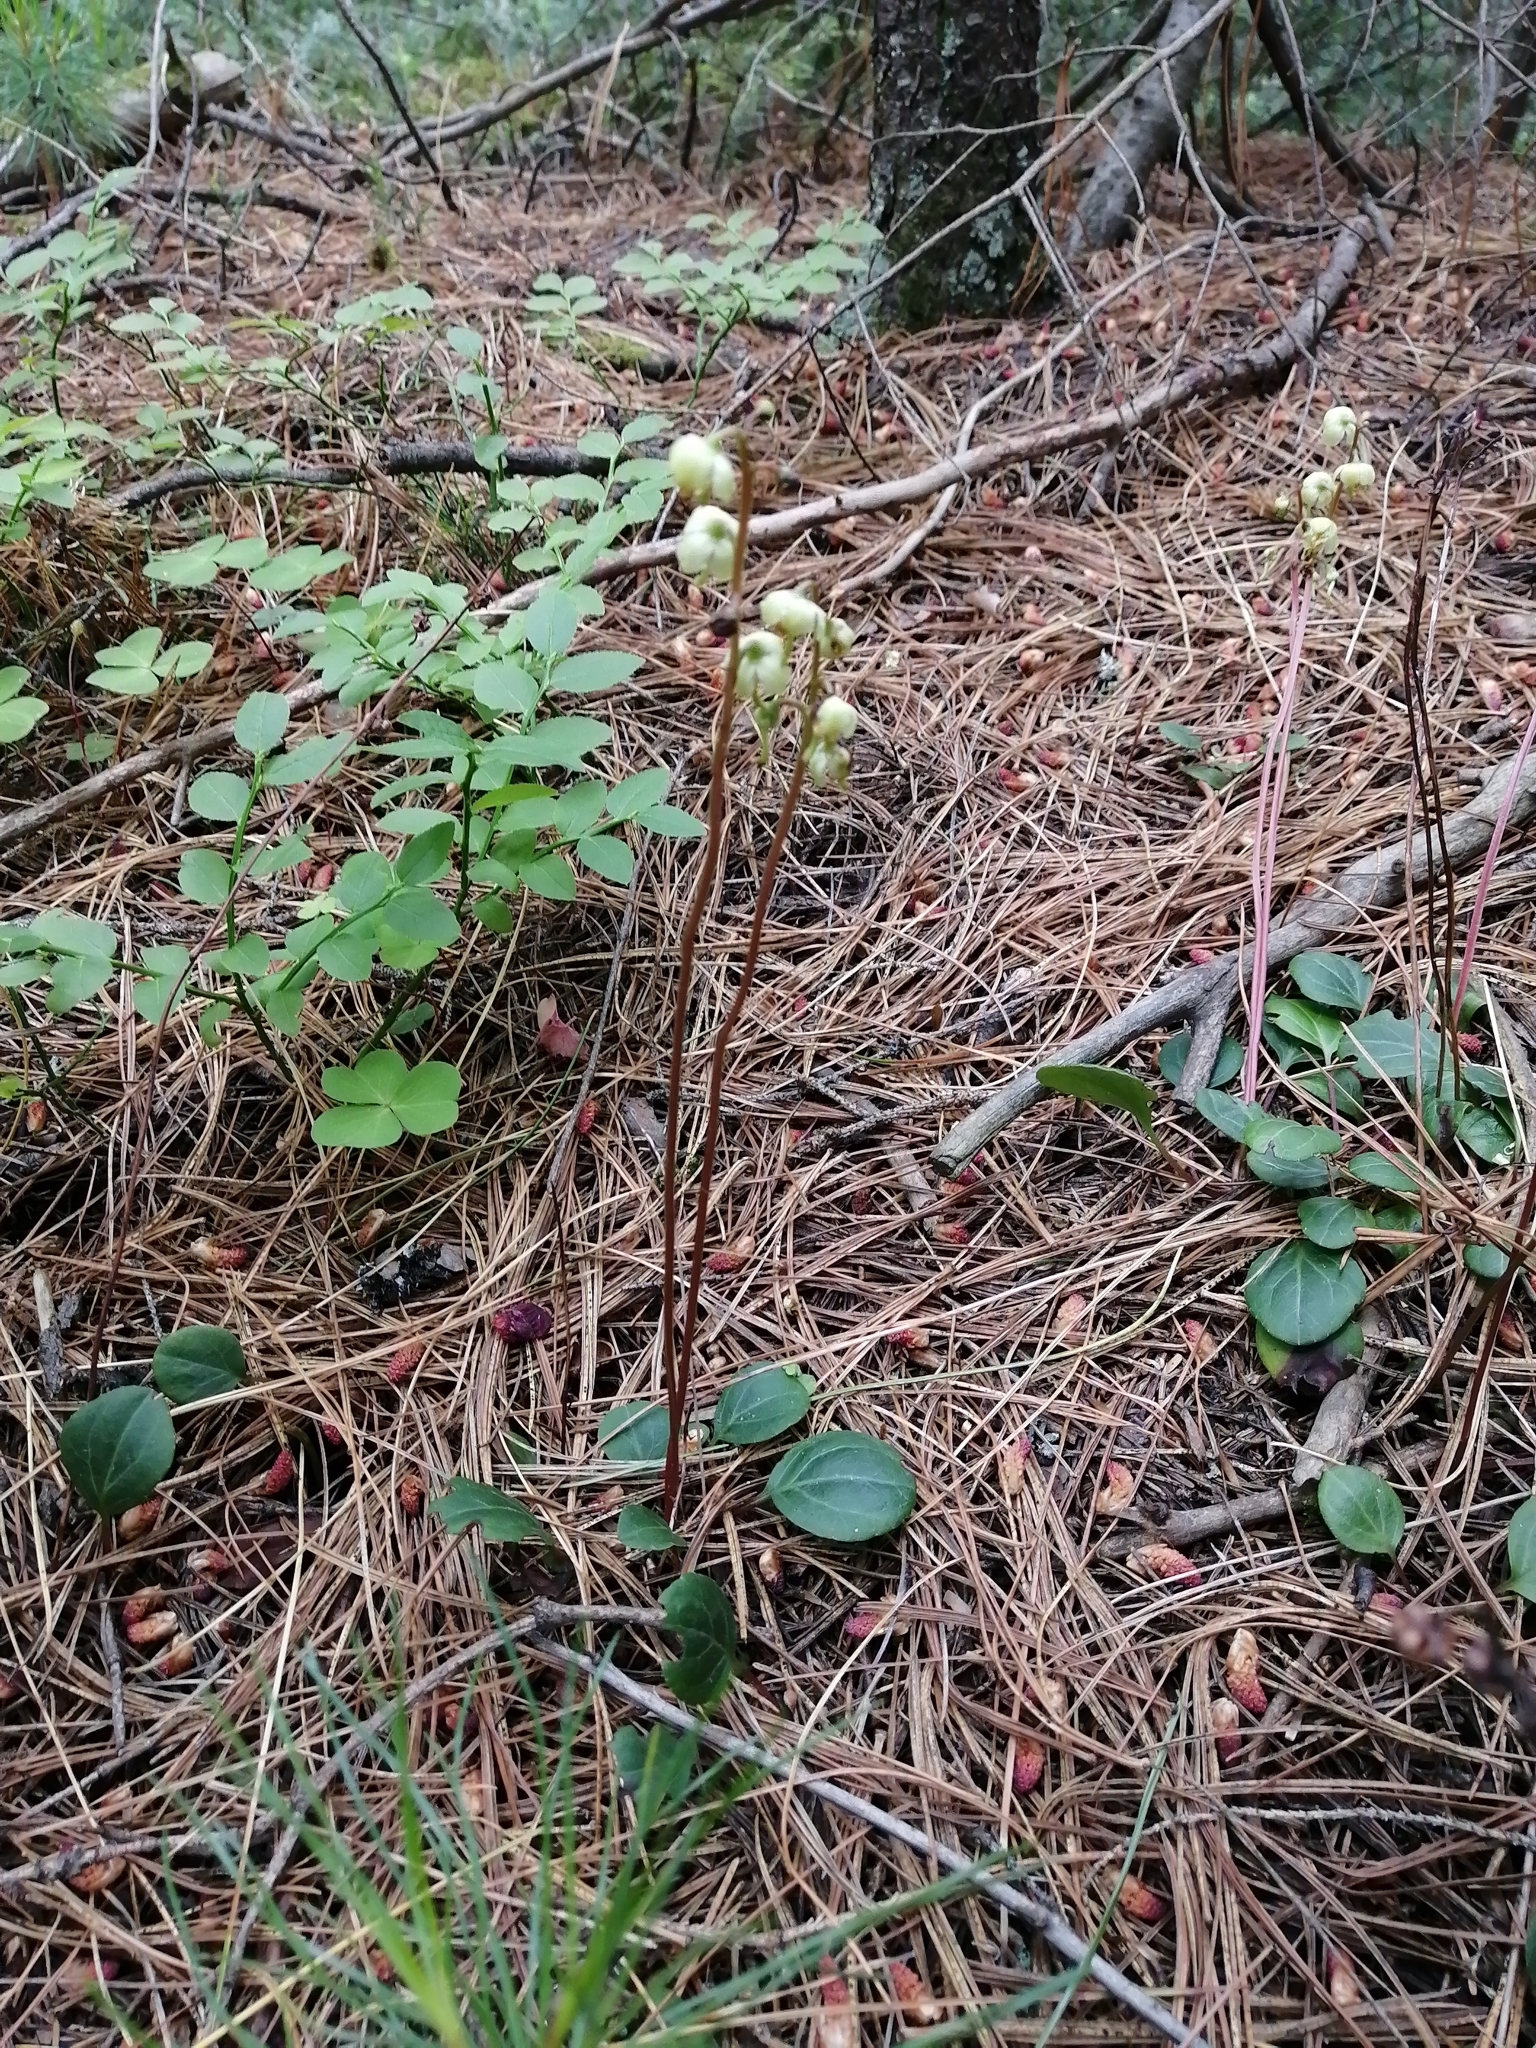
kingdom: Plantae
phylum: Tracheophyta
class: Magnoliopsida
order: Ericales
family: Ericaceae
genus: Pyrola
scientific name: Pyrola chlorantha
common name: Green wintergreen
